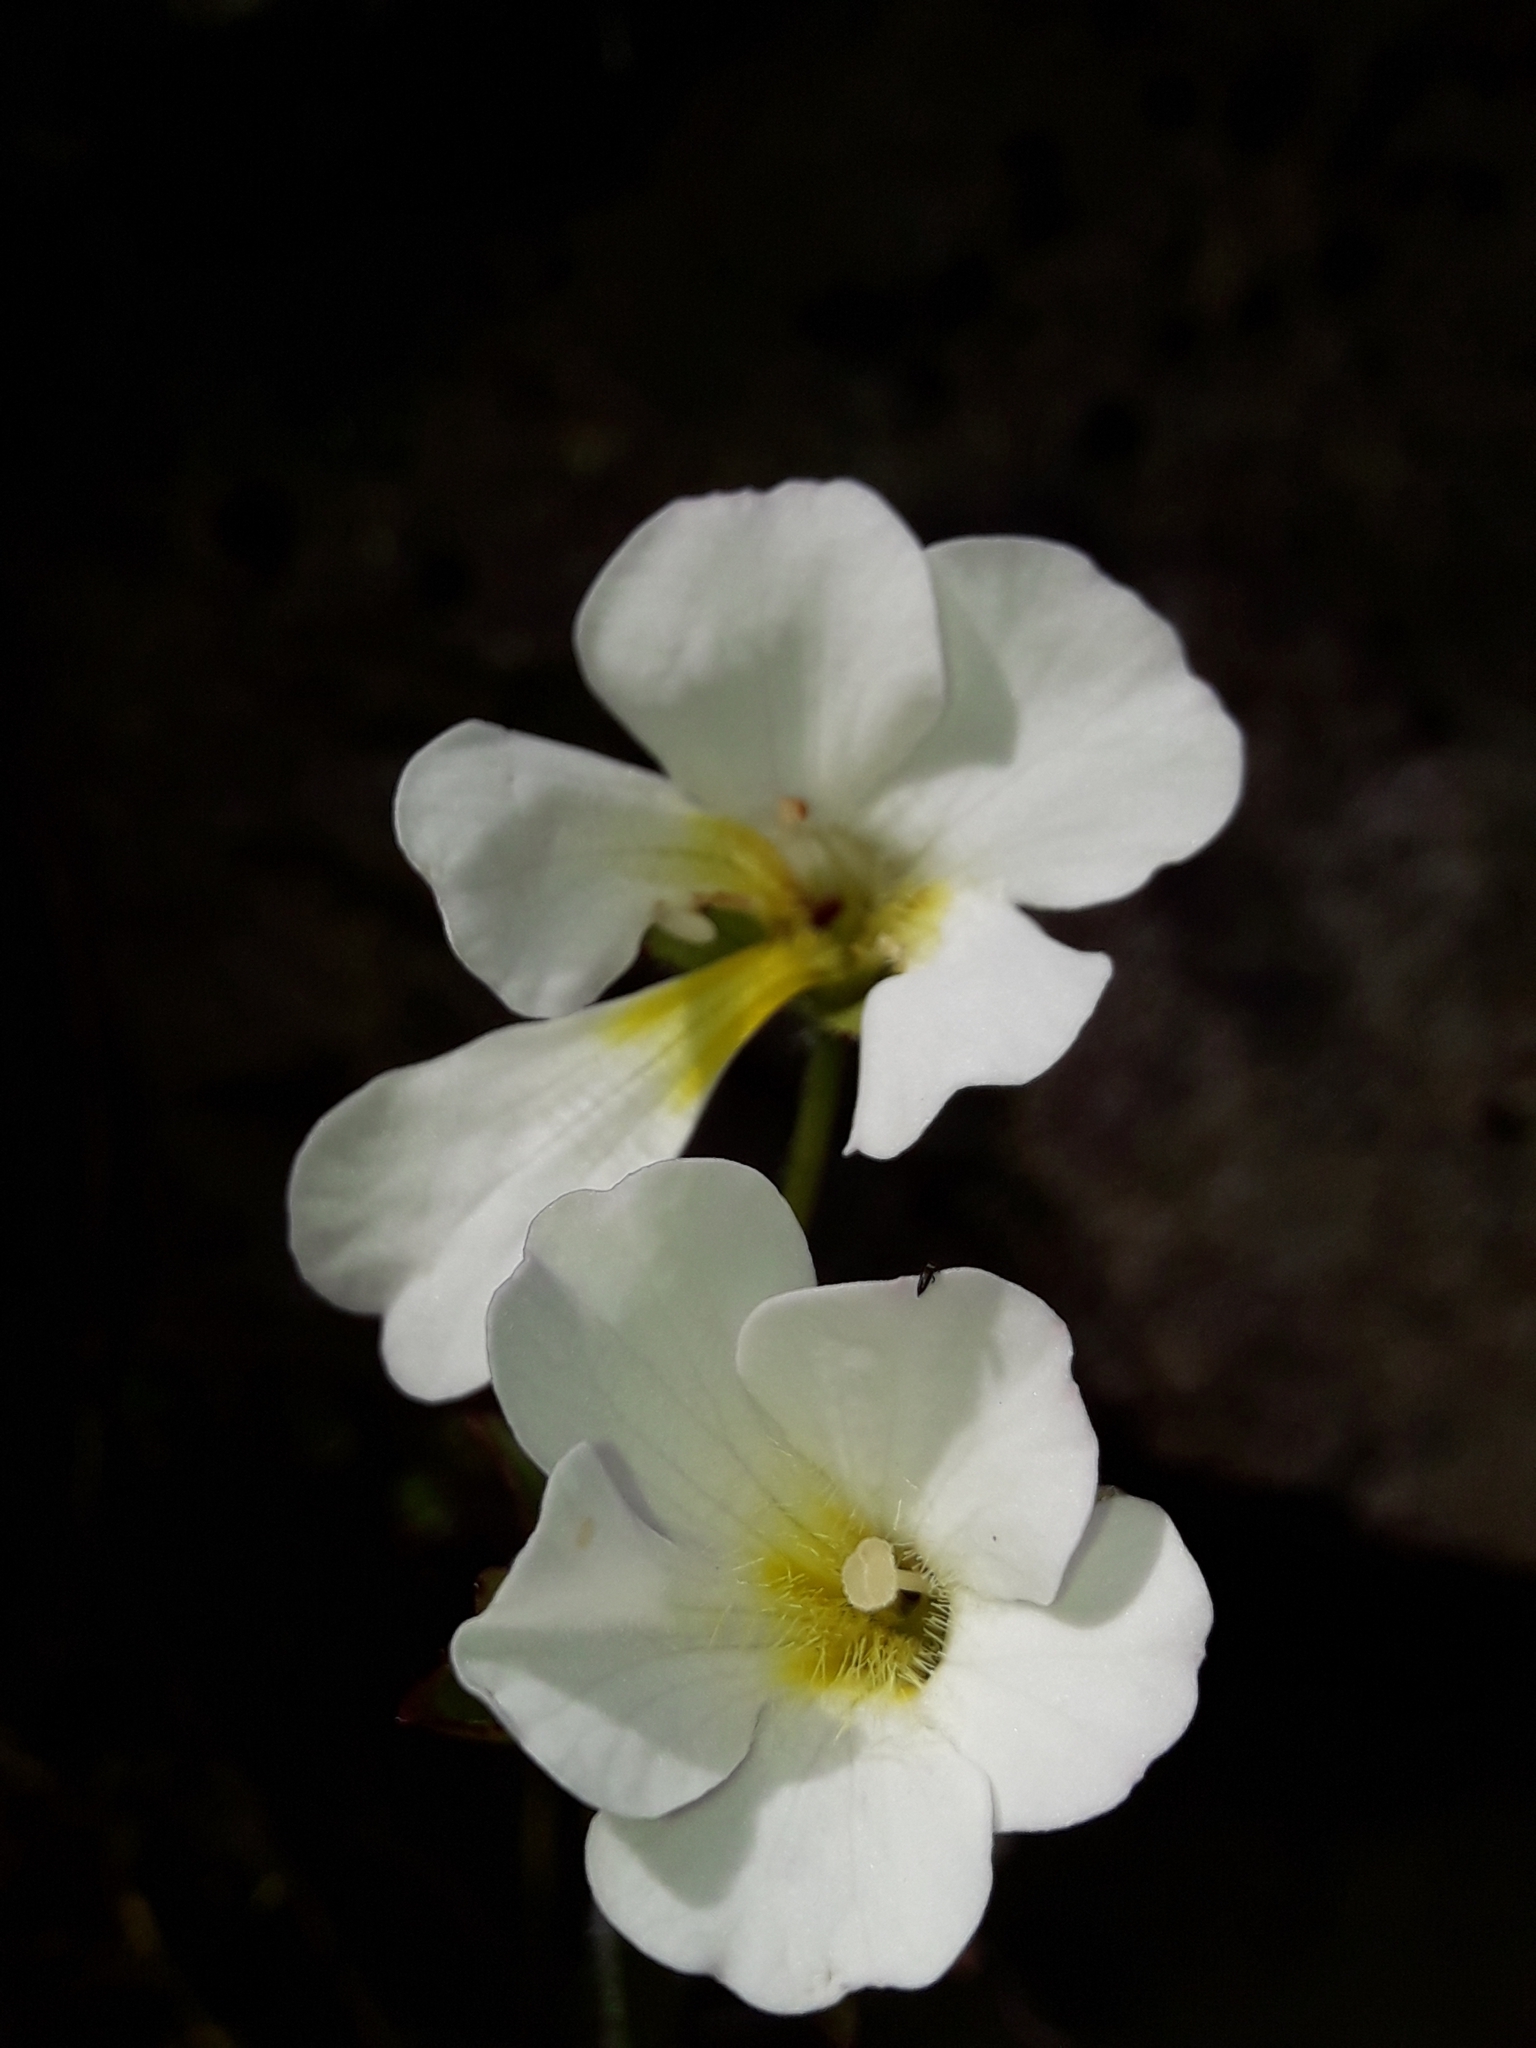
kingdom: Plantae
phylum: Tracheophyta
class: Magnoliopsida
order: Lamiales
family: Plantaginaceae
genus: Ourisia
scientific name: Ourisia calycina
